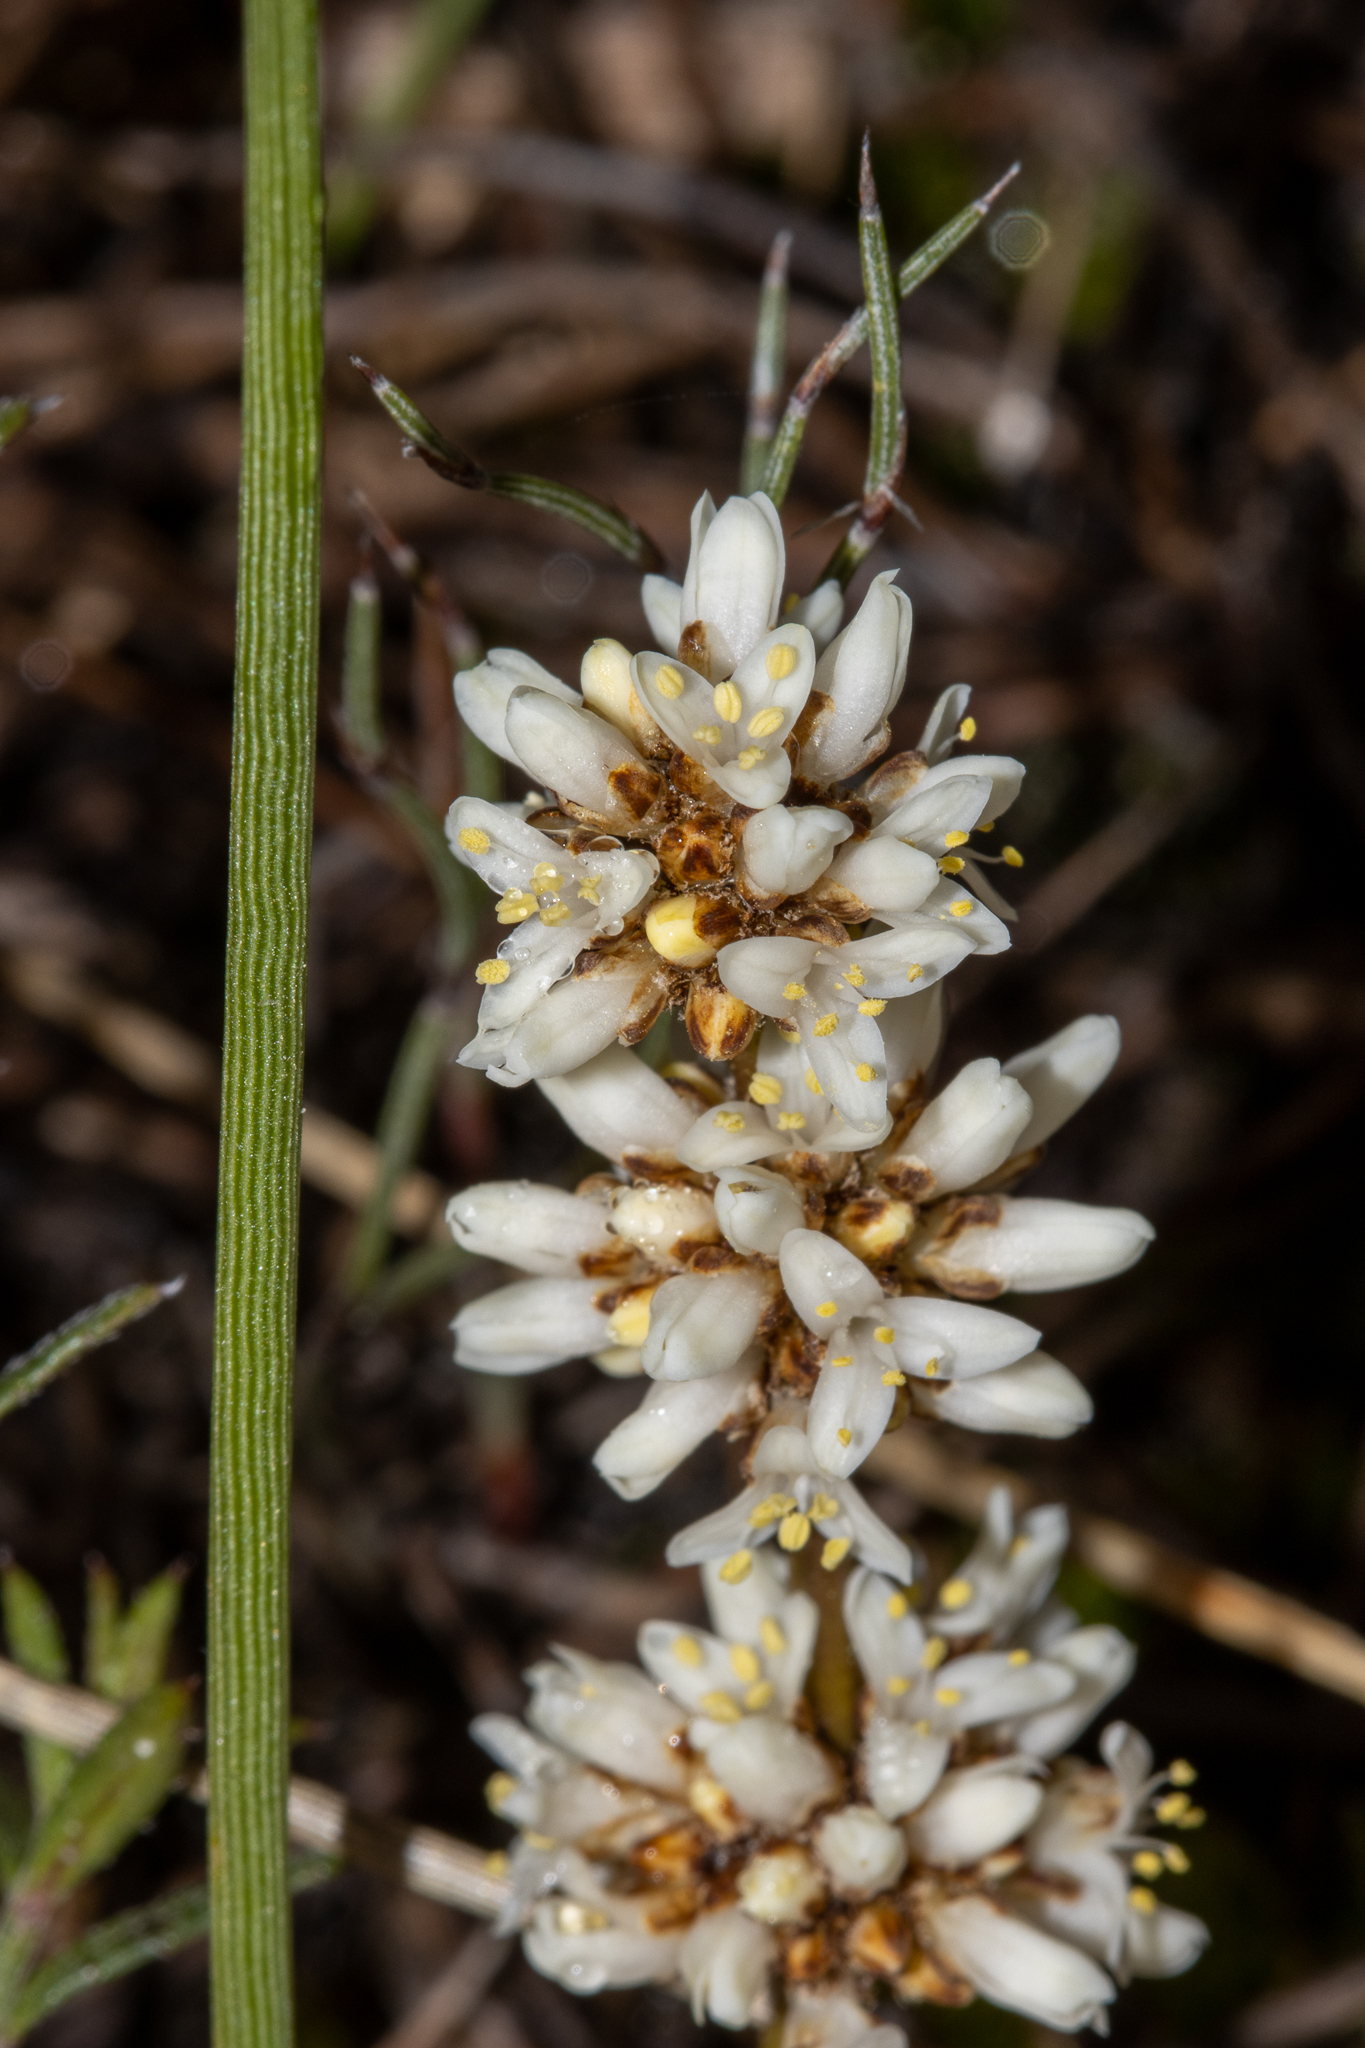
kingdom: Plantae
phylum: Tracheophyta
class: Liliopsida
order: Asparagales
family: Asparagaceae
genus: Lomandra
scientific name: Lomandra juncea
